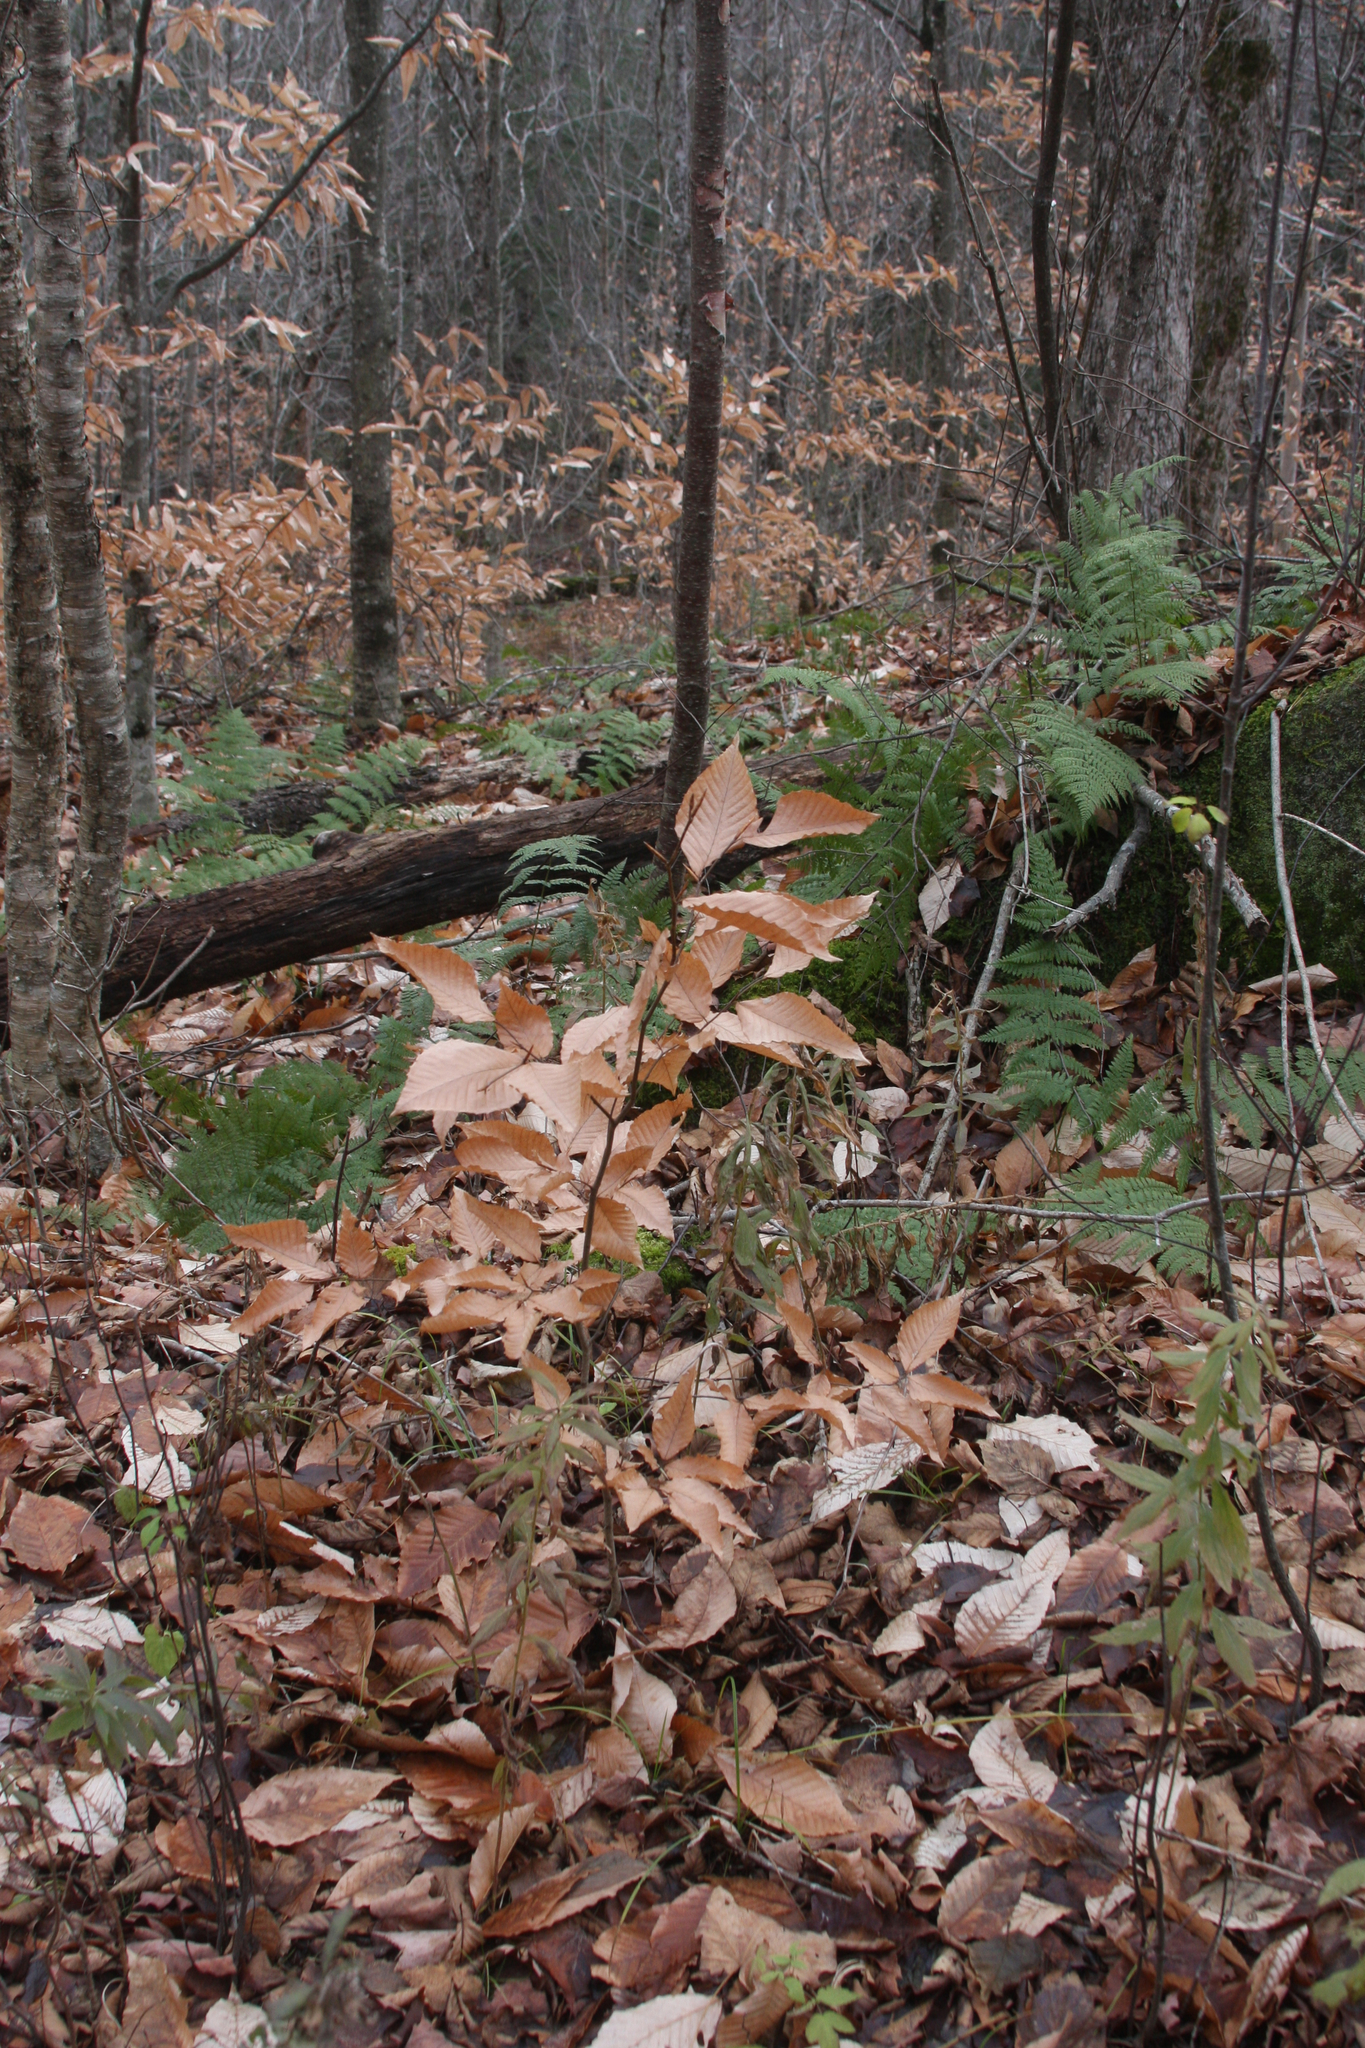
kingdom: Plantae
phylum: Tracheophyta
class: Magnoliopsida
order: Fagales
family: Fagaceae
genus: Fagus
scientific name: Fagus grandifolia
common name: American beech
